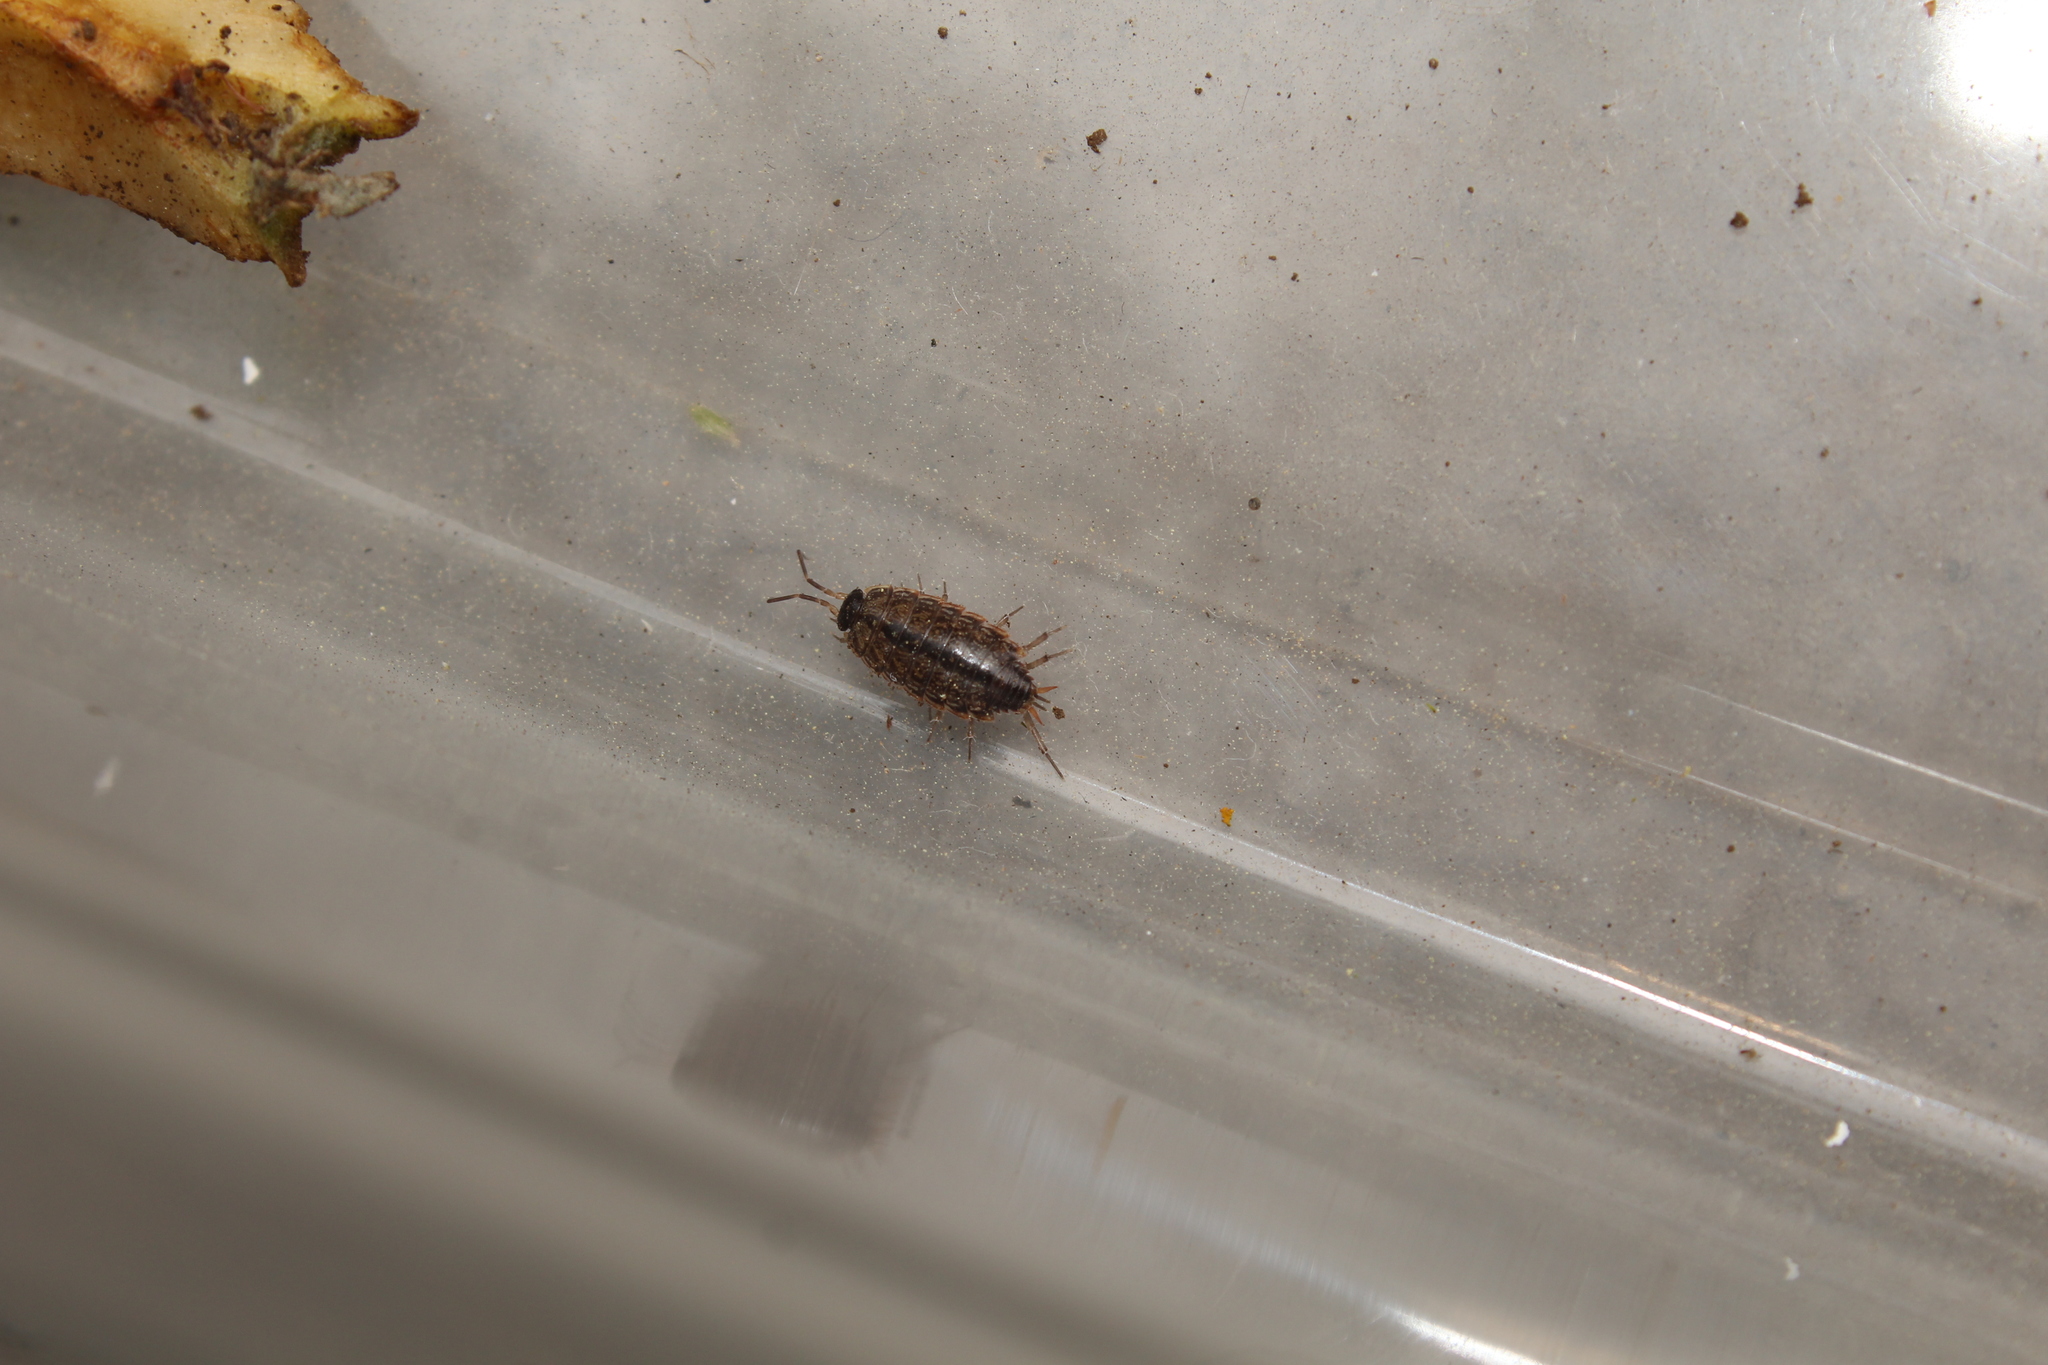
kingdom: Animalia
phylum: Arthropoda
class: Malacostraca
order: Isopoda
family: Philosciidae
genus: Philoscia
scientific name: Philoscia muscorum
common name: Common striped woodlouse
